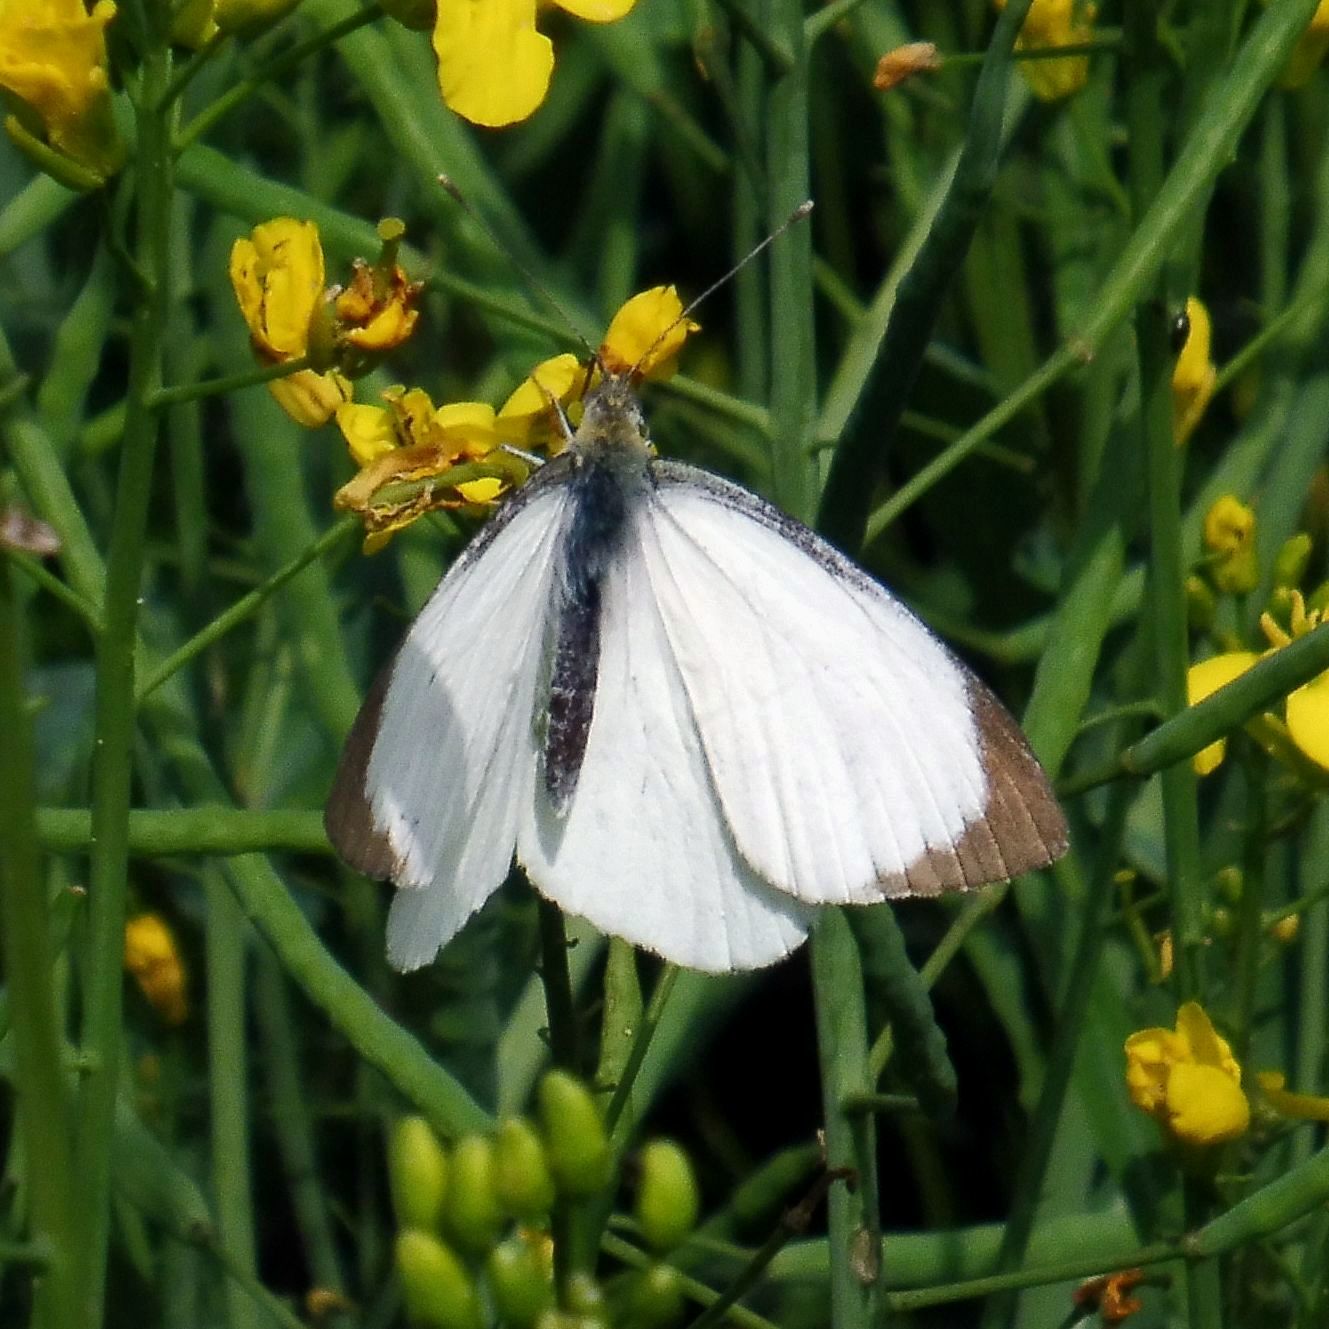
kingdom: Animalia
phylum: Arthropoda
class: Insecta
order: Lepidoptera
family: Pieridae
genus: Pieris
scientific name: Pieris brassicae
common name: Large white
